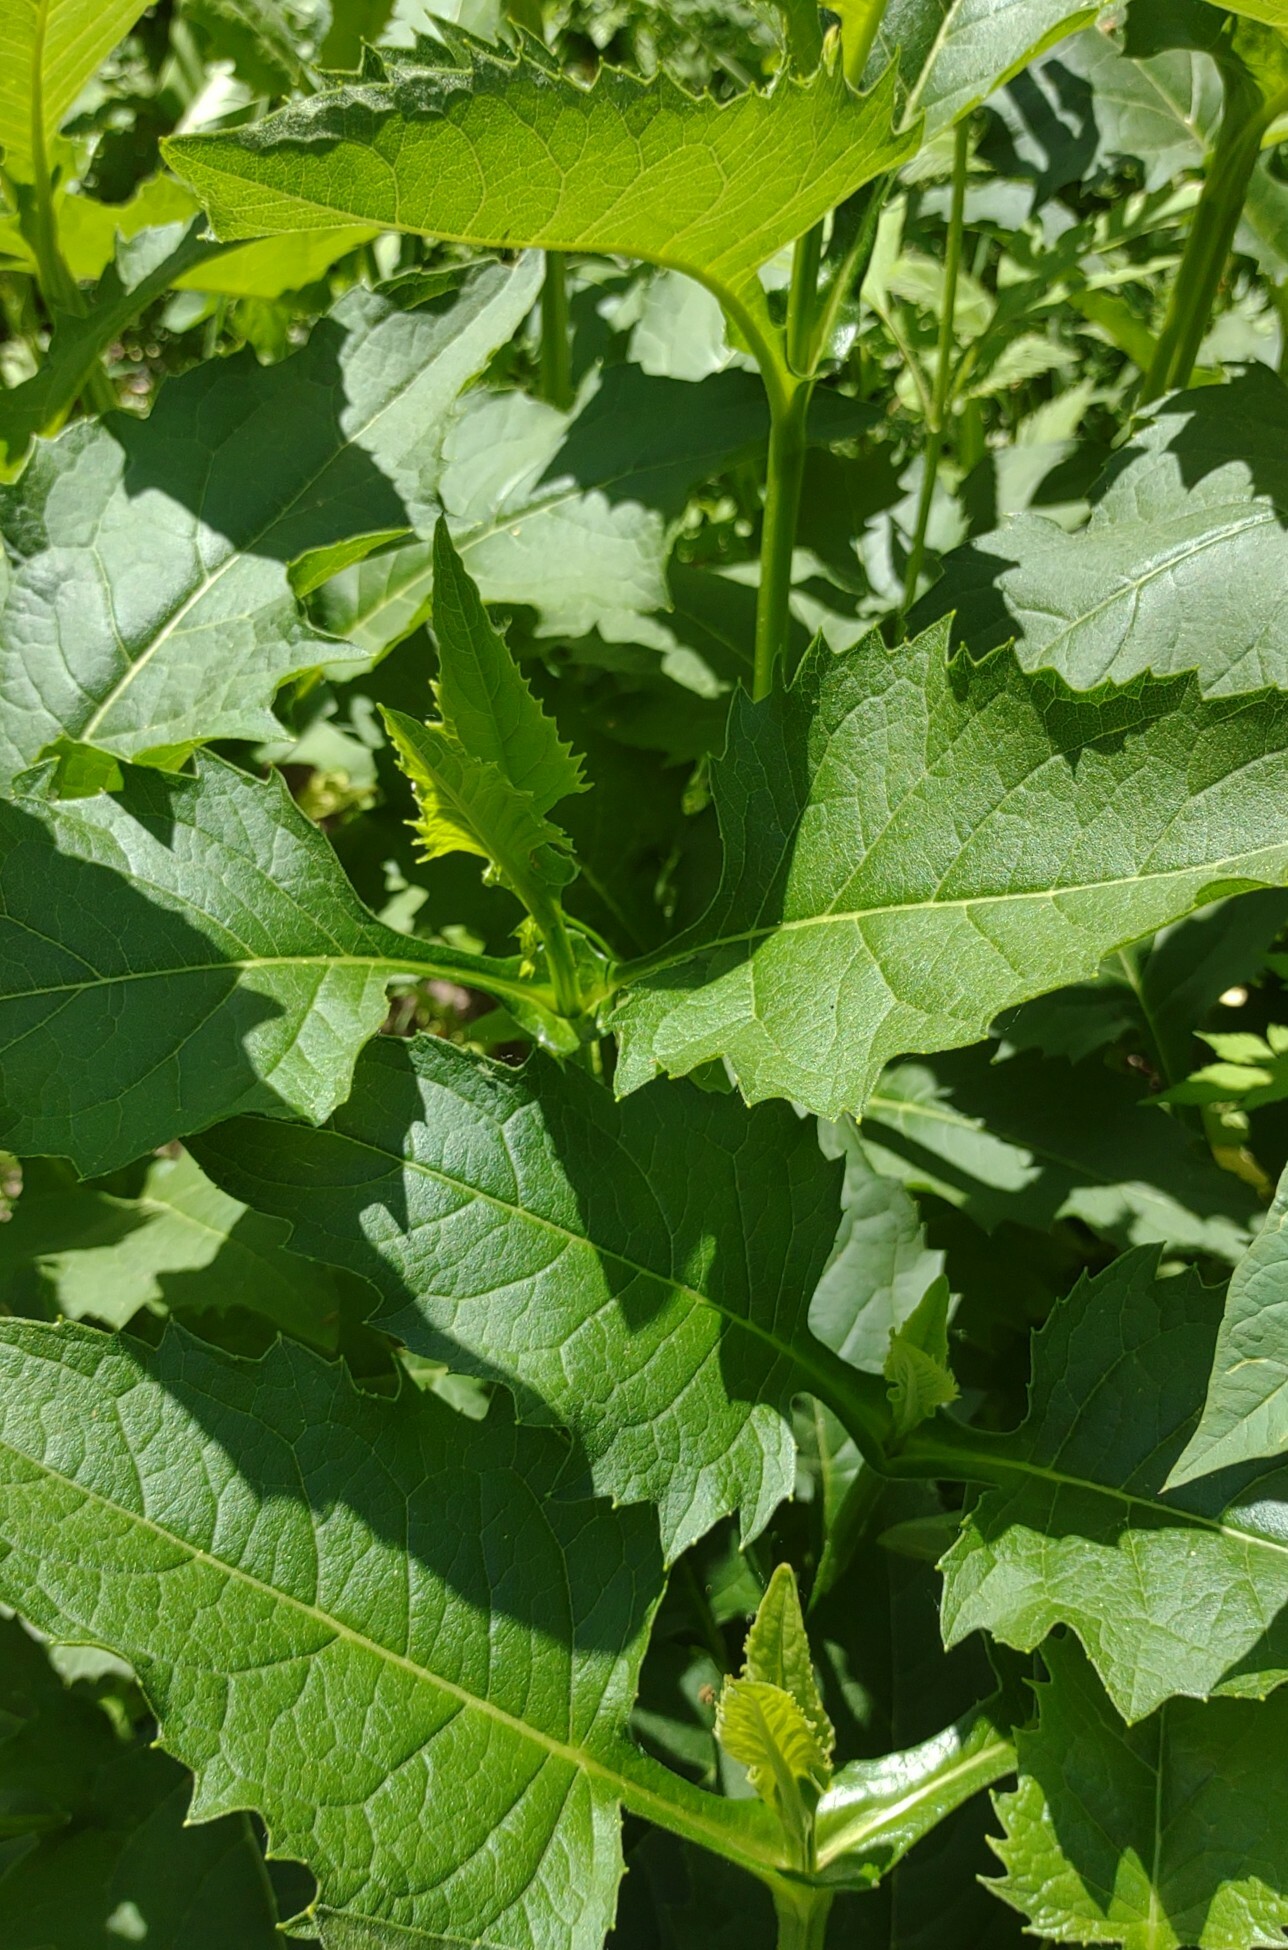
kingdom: Plantae
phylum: Tracheophyta
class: Magnoliopsida
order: Asterales
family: Asteraceae
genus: Silphium
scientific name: Silphium perfoliatum
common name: Cup-plant
